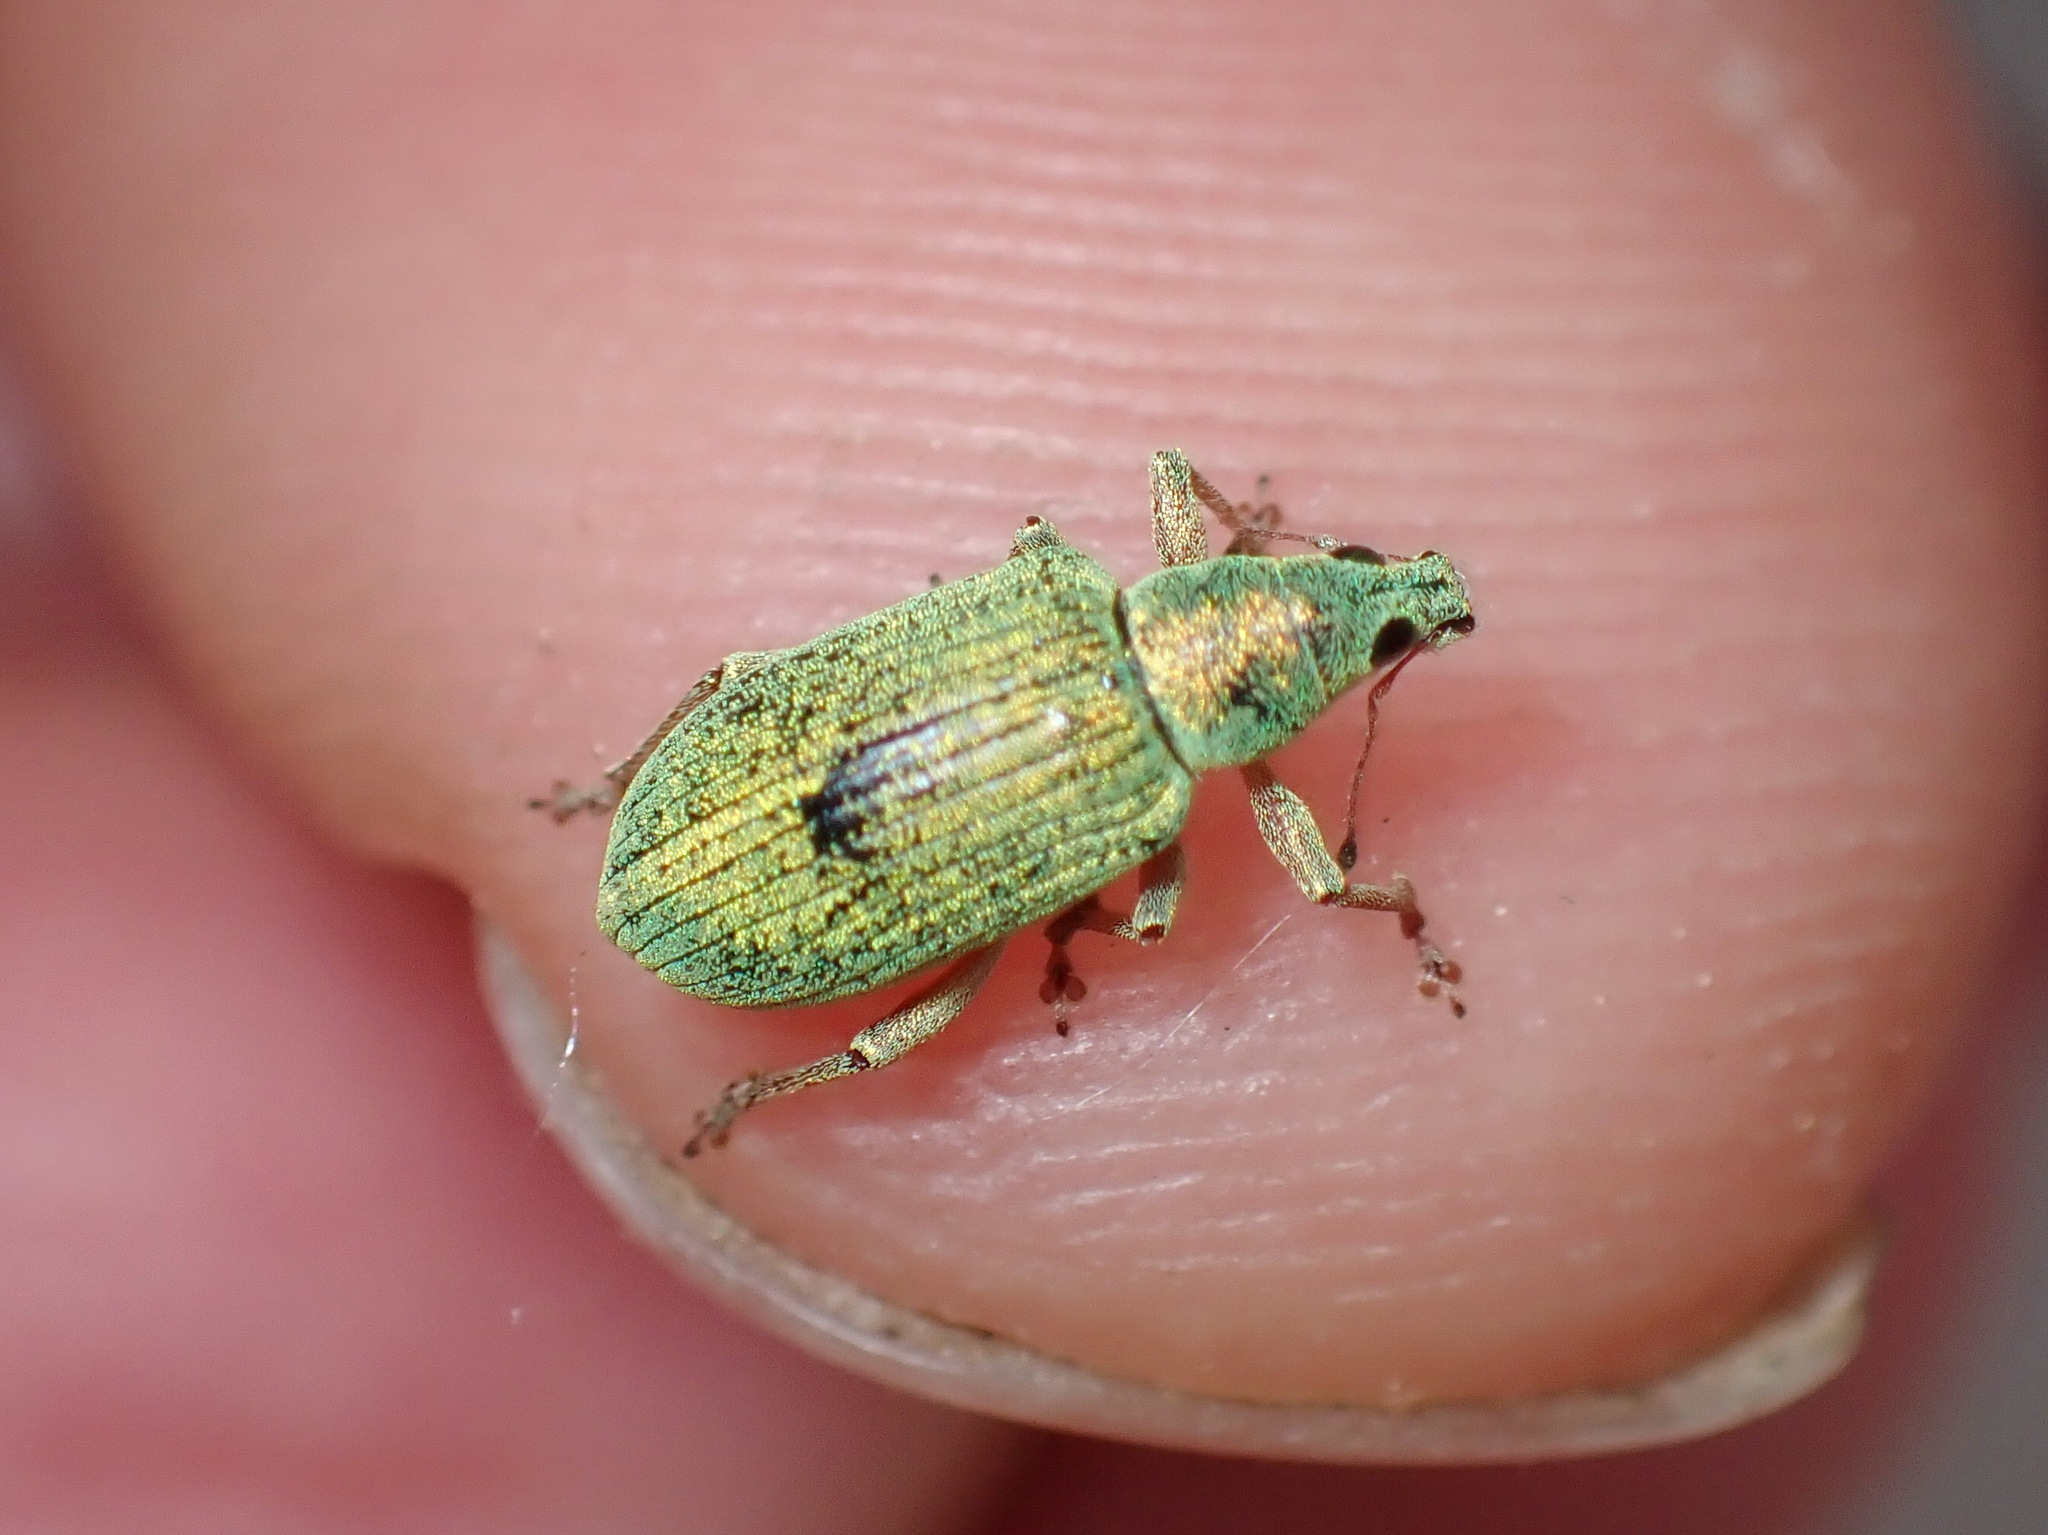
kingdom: Animalia
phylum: Arthropoda
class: Insecta
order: Coleoptera
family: Curculionidae
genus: Polydrusus
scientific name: Polydrusus formosus
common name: Weevil
